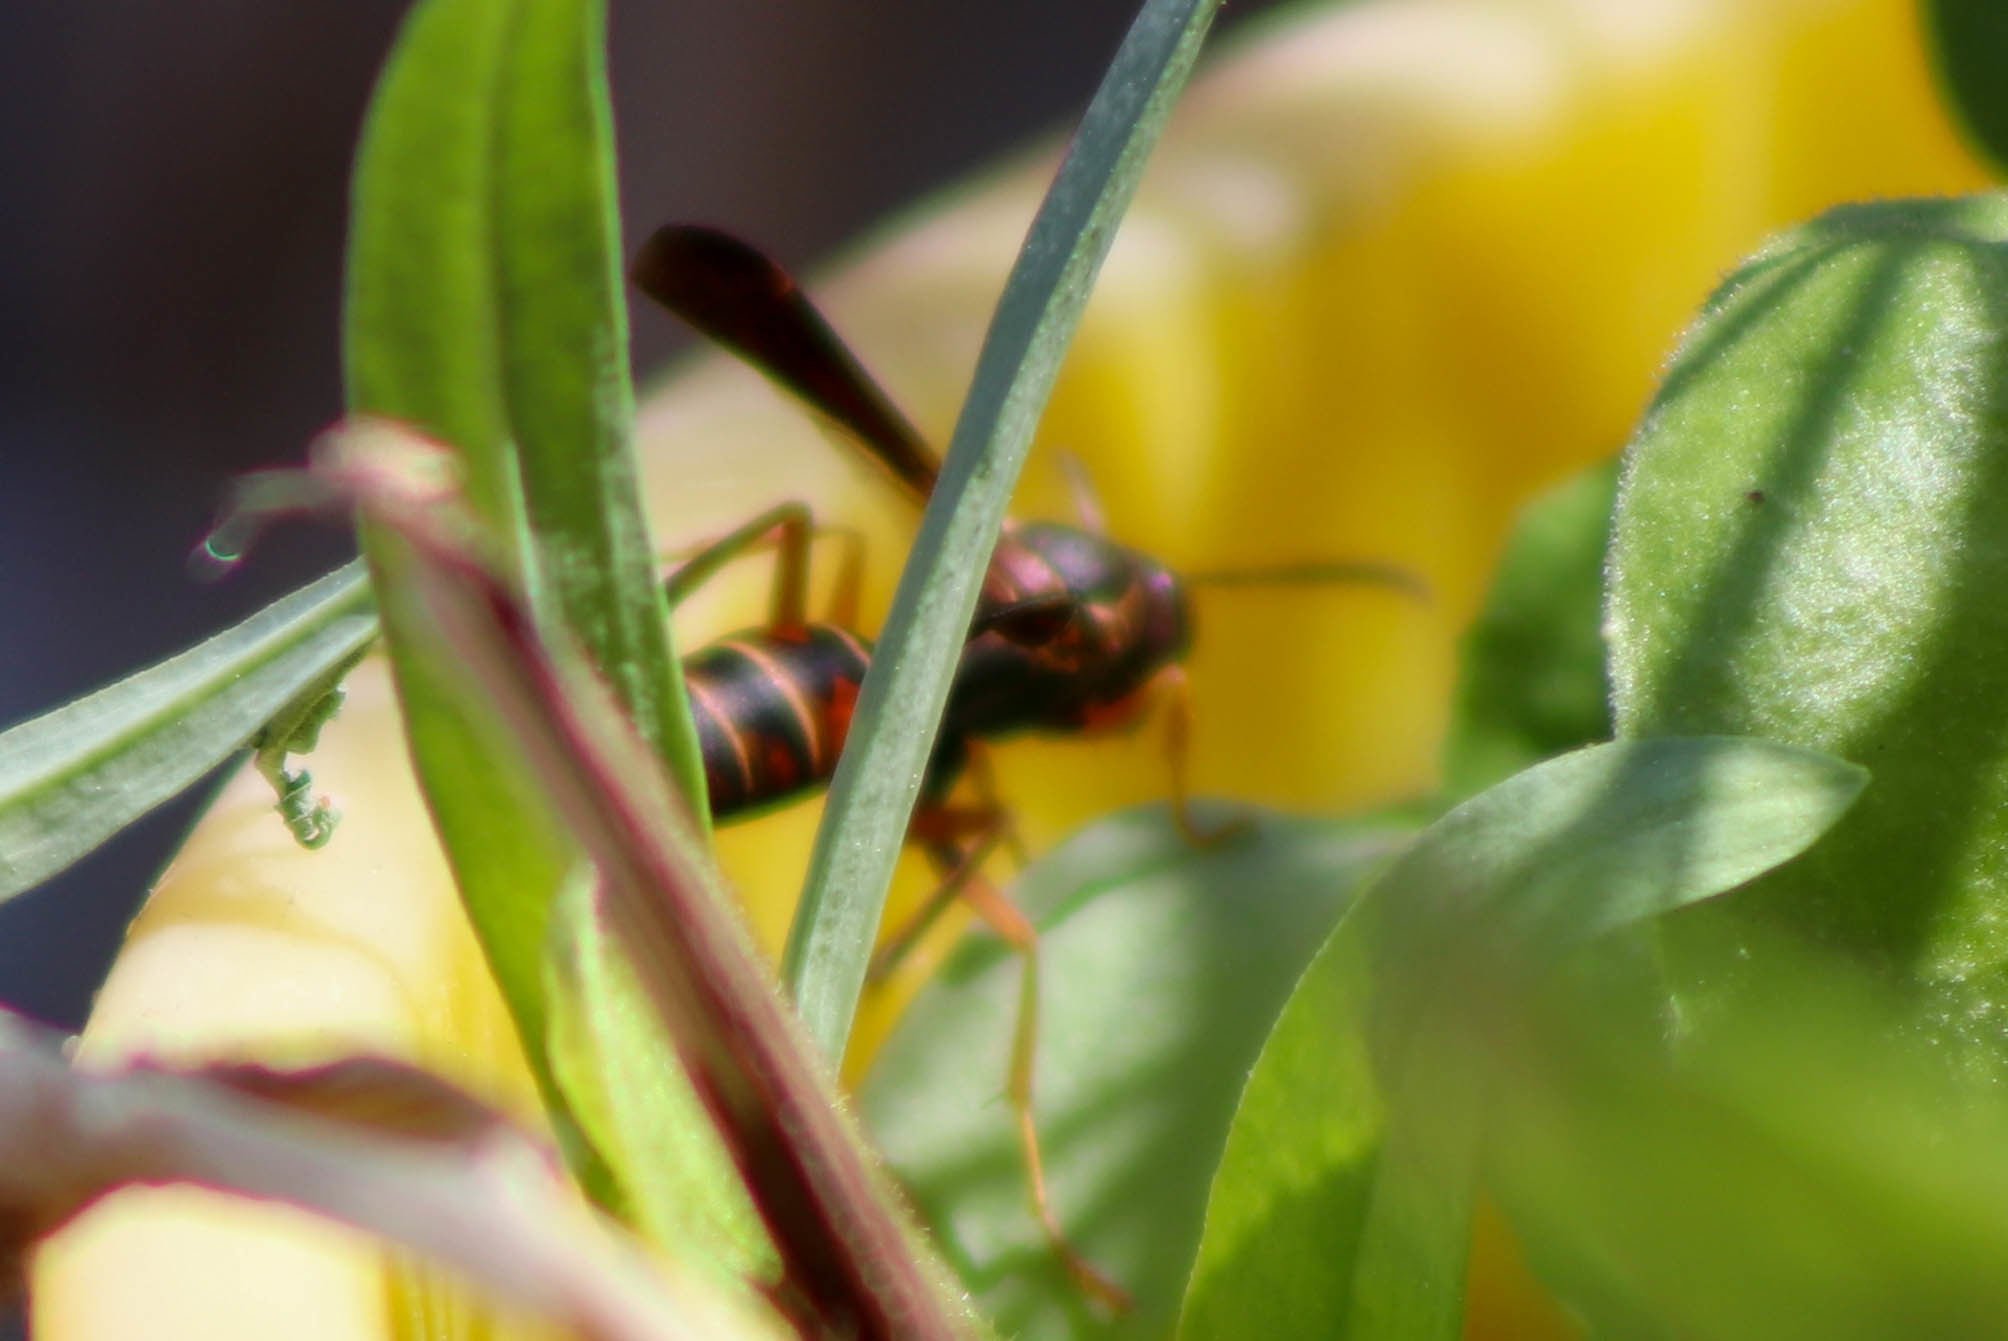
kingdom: Animalia
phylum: Arthropoda
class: Insecta
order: Hymenoptera
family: Eumenidae
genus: Polistes
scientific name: Polistes fuscatus
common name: Dark paper wasp
